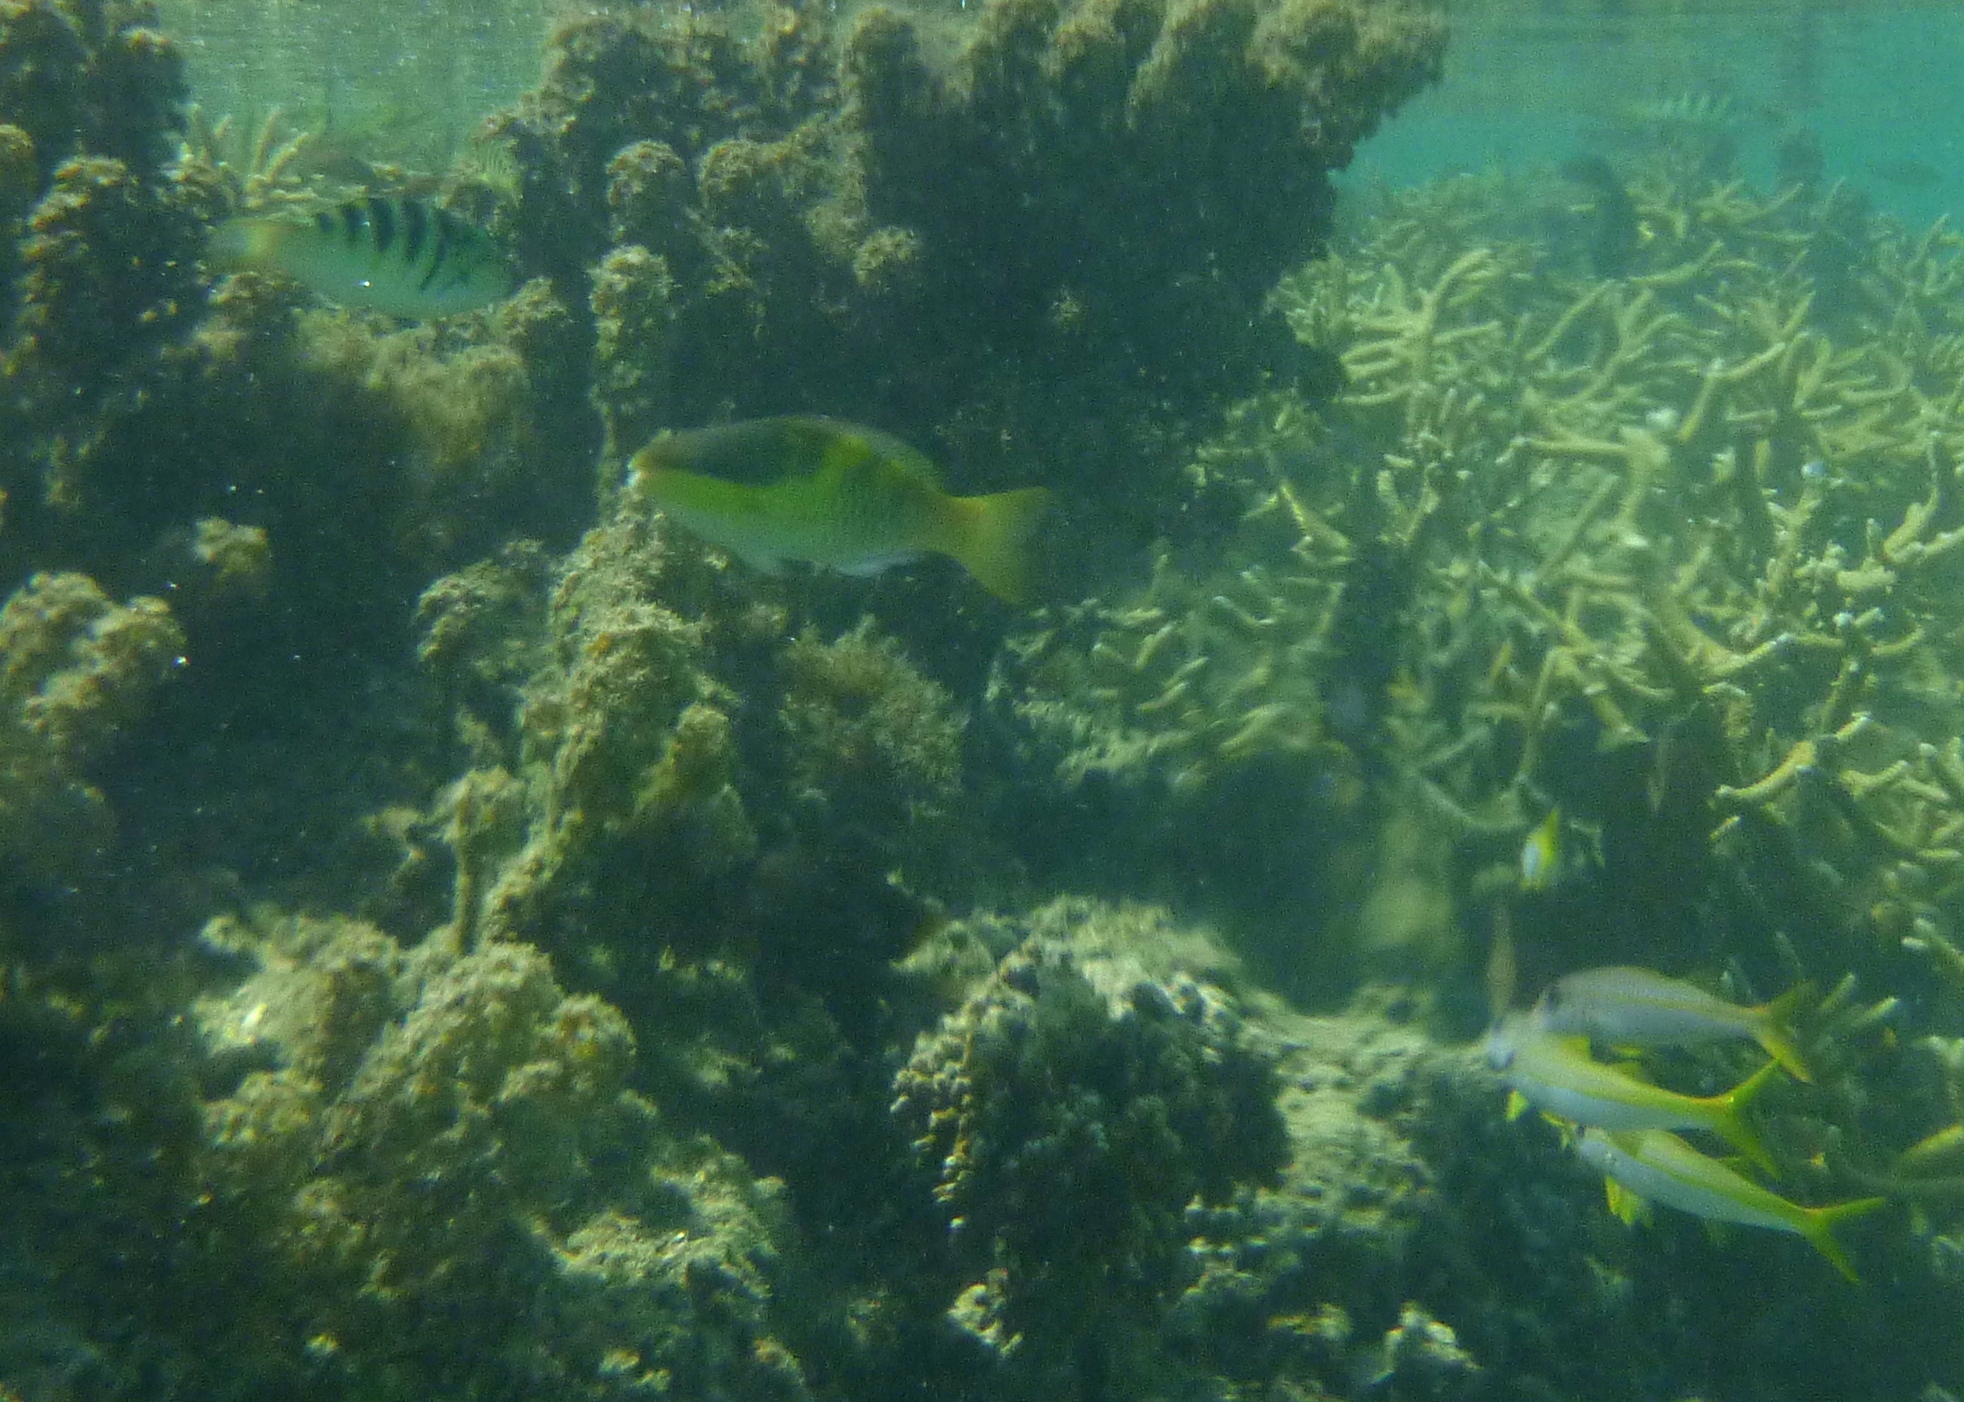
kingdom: Animalia
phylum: Chordata
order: Perciformes
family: Labridae
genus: Thalassoma
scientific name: Thalassoma hardwicke
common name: Sixbar wrasse
